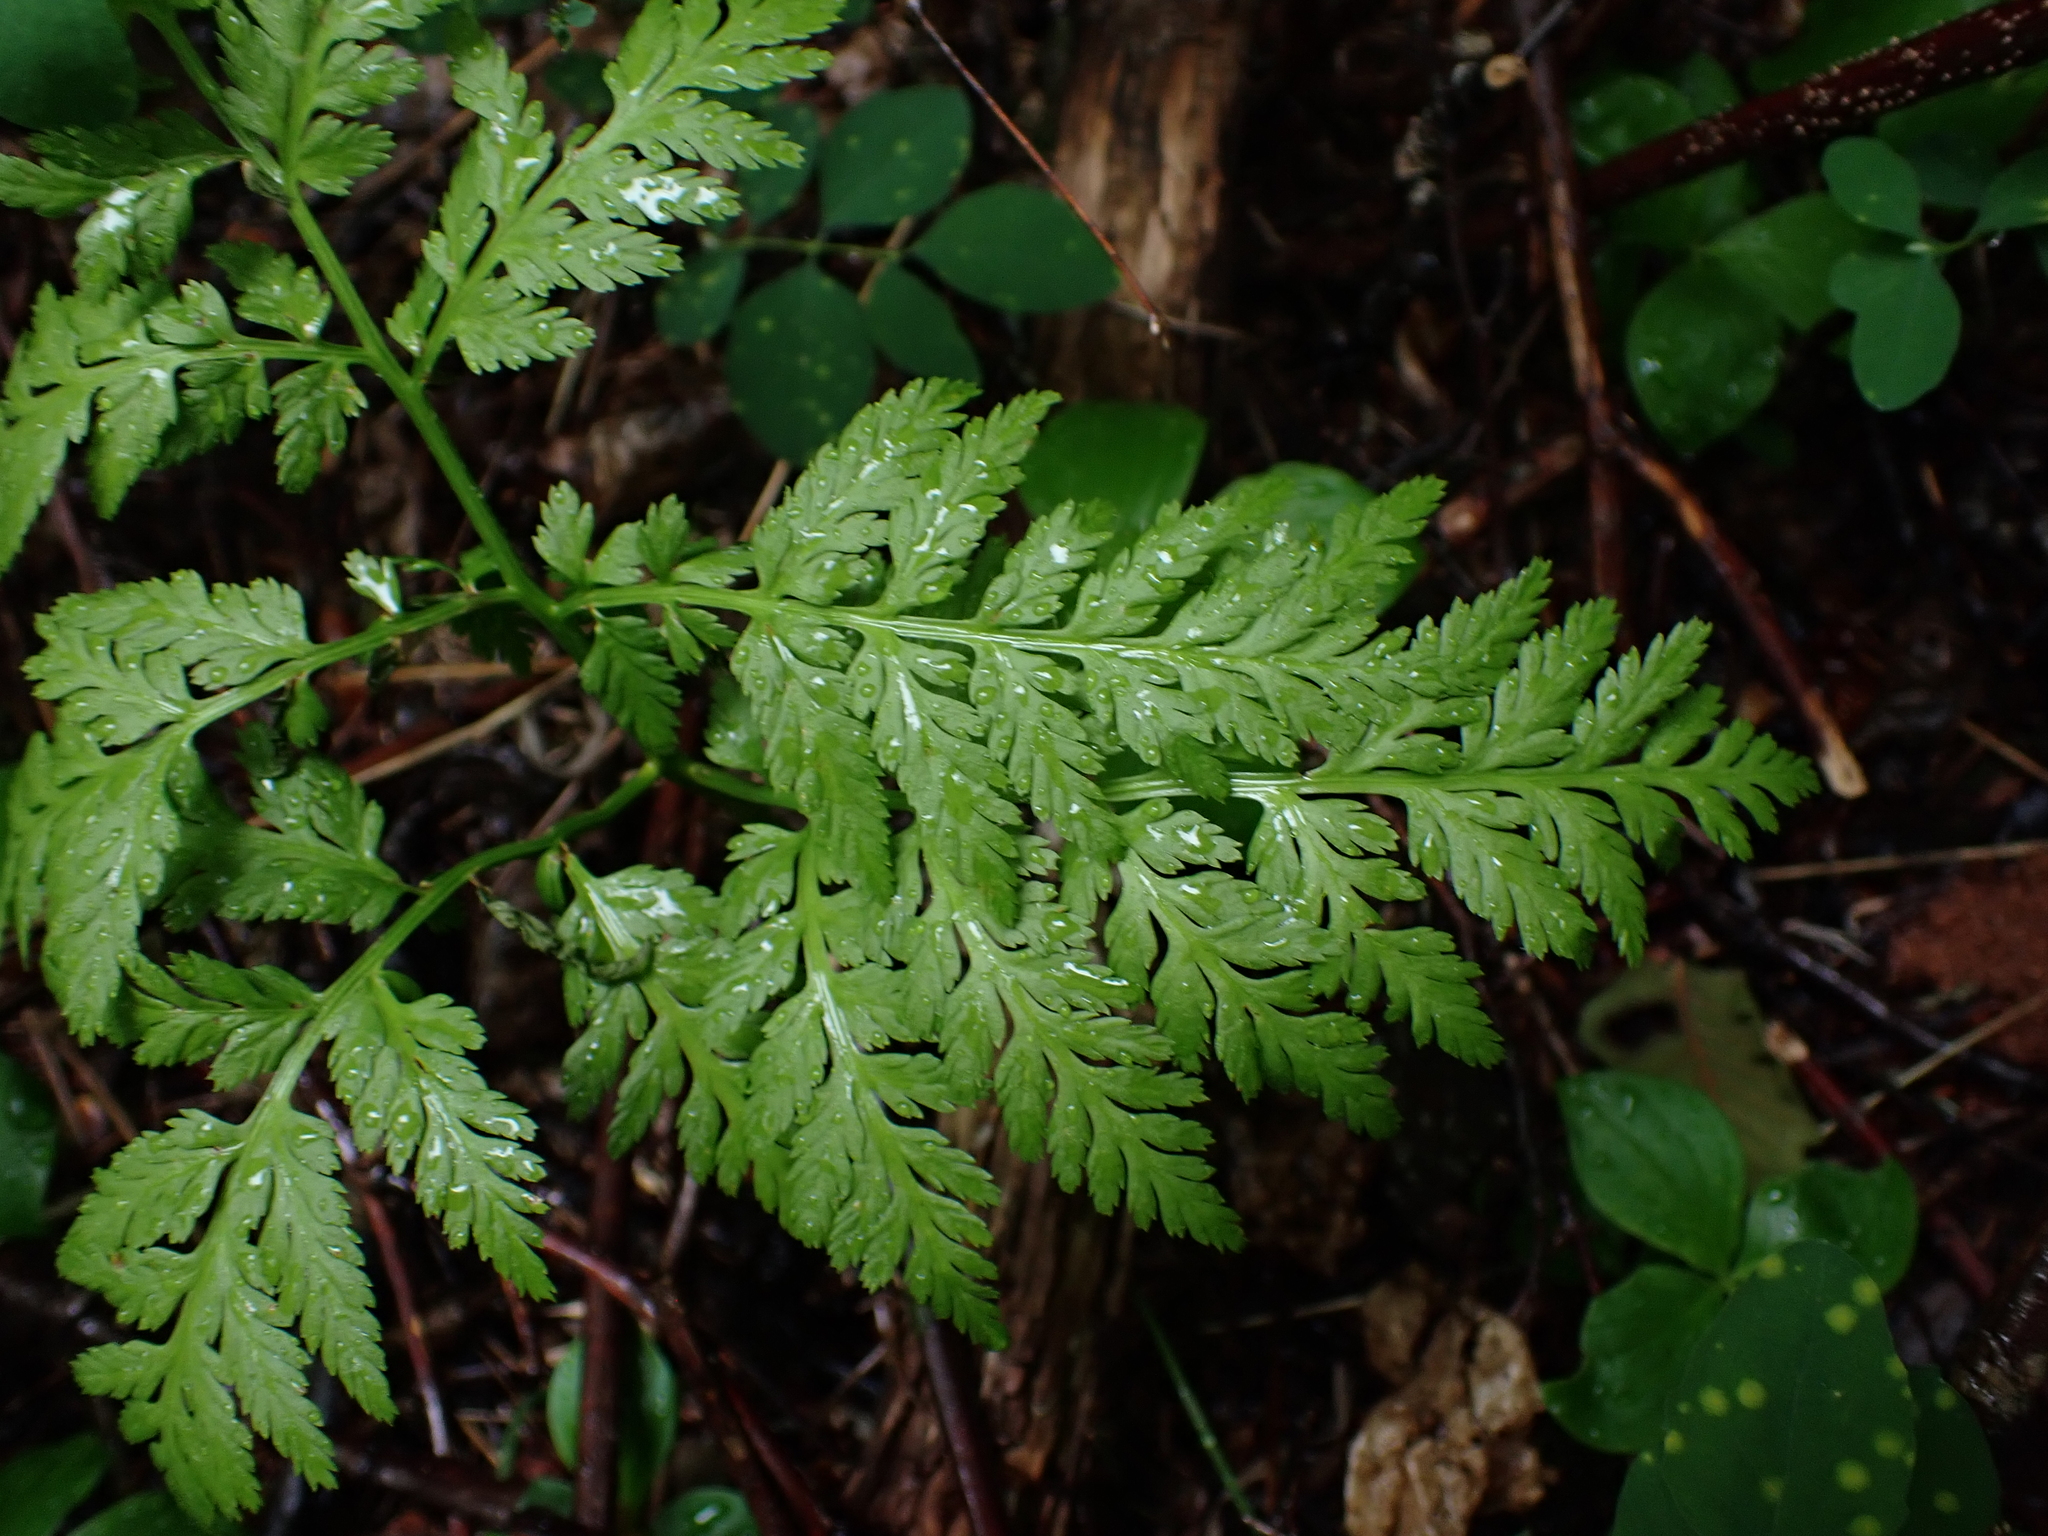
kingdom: Plantae
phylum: Tracheophyta
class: Polypodiopsida
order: Ophioglossales
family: Ophioglossaceae
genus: Botrypus
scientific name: Botrypus virginianus
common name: Common grapefern
